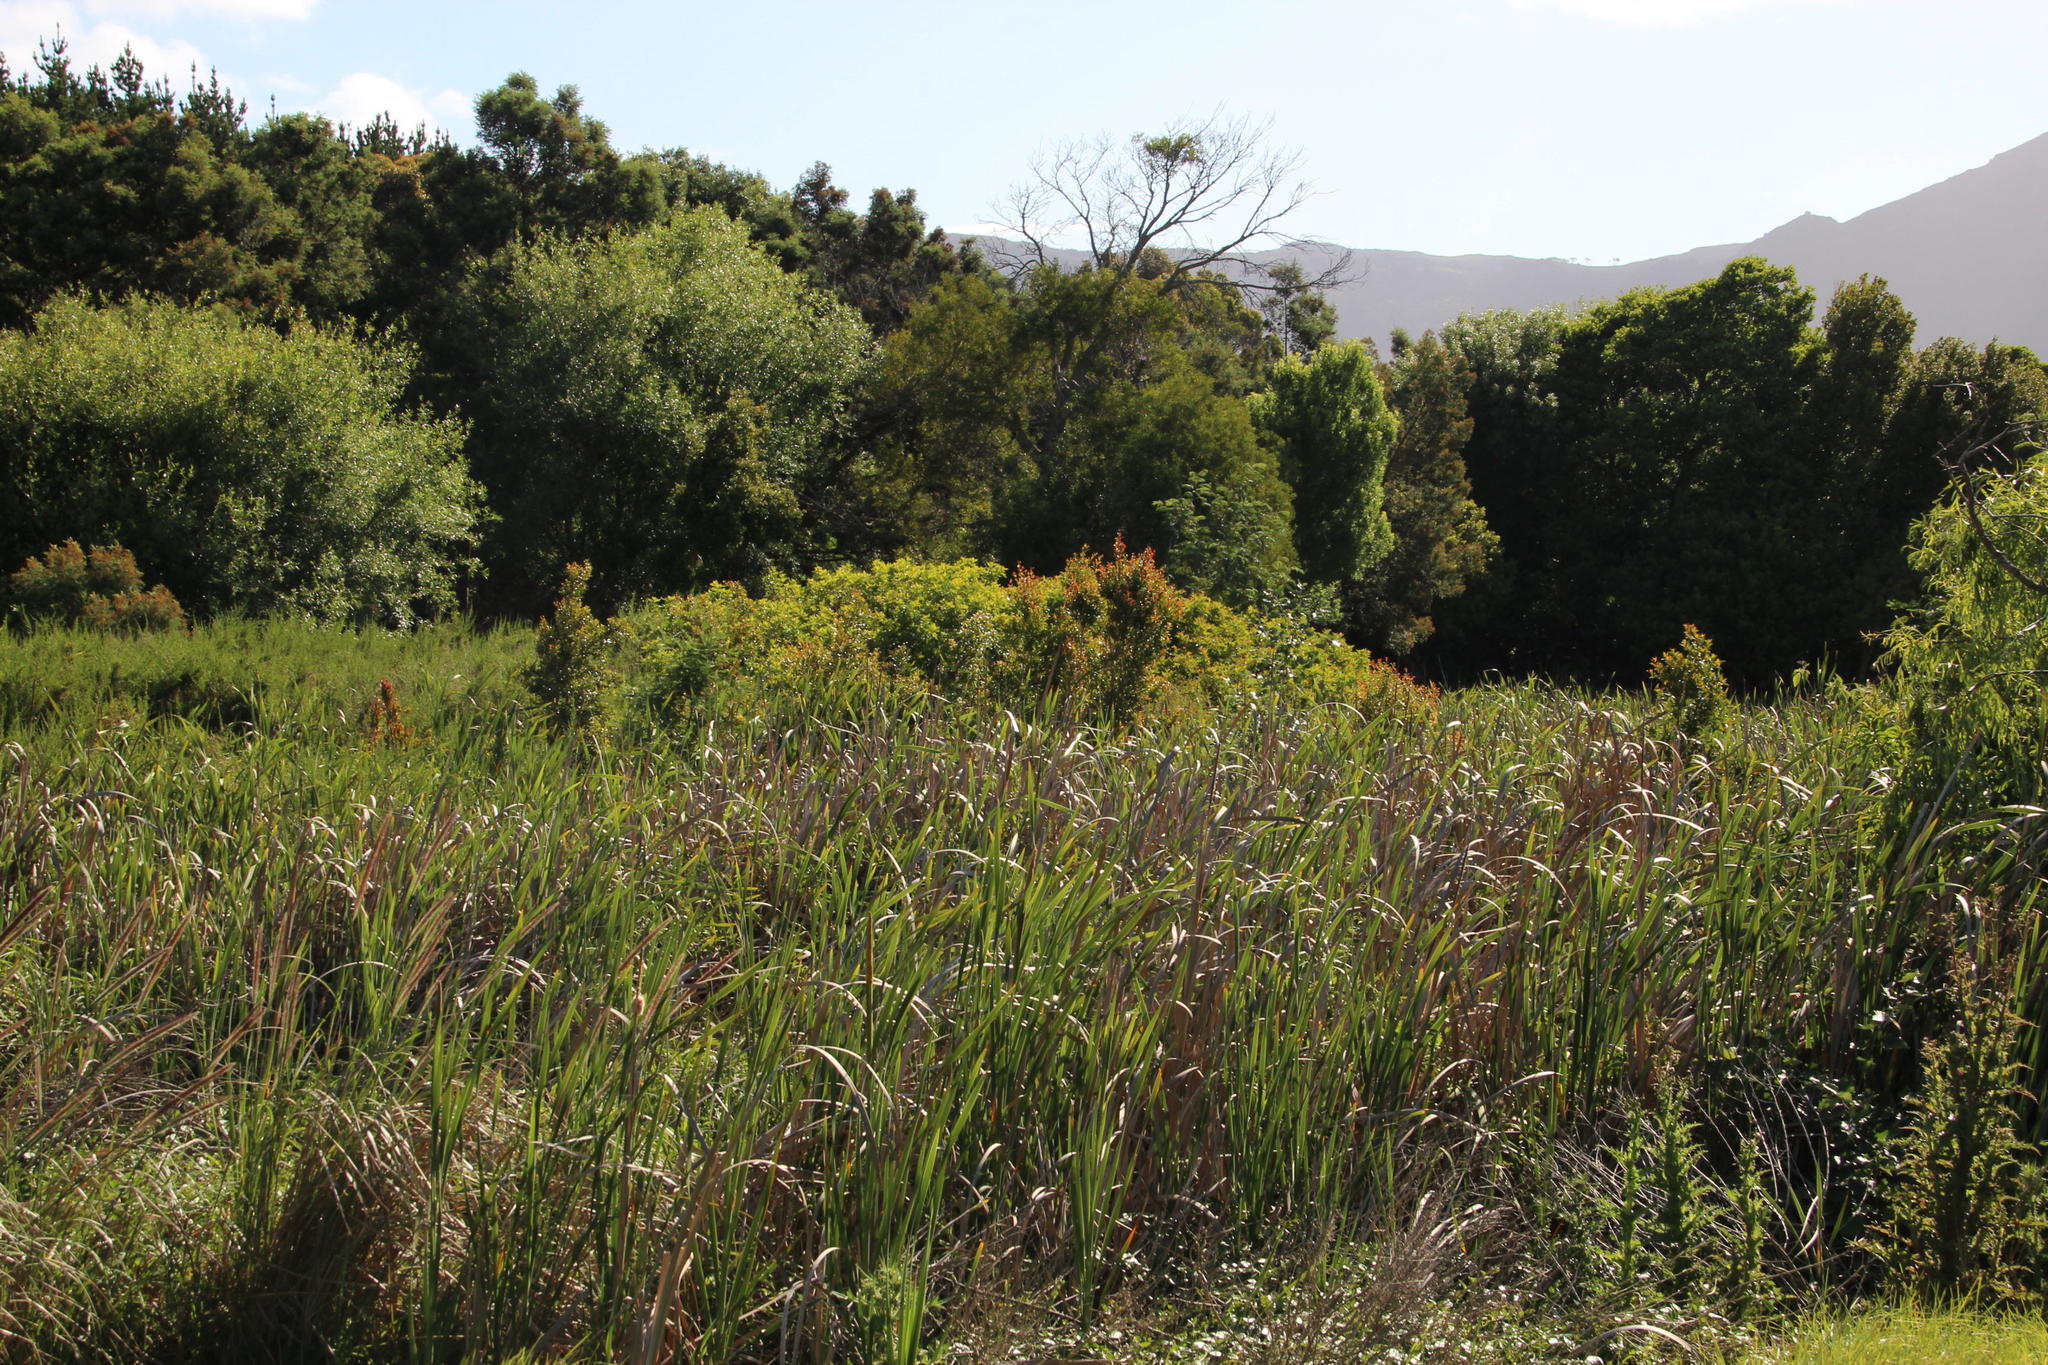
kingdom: Plantae
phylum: Tracheophyta
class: Magnoliopsida
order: Lamiales
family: Oleaceae
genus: Ligustrum
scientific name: Ligustrum lucidum
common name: Glossy privet
